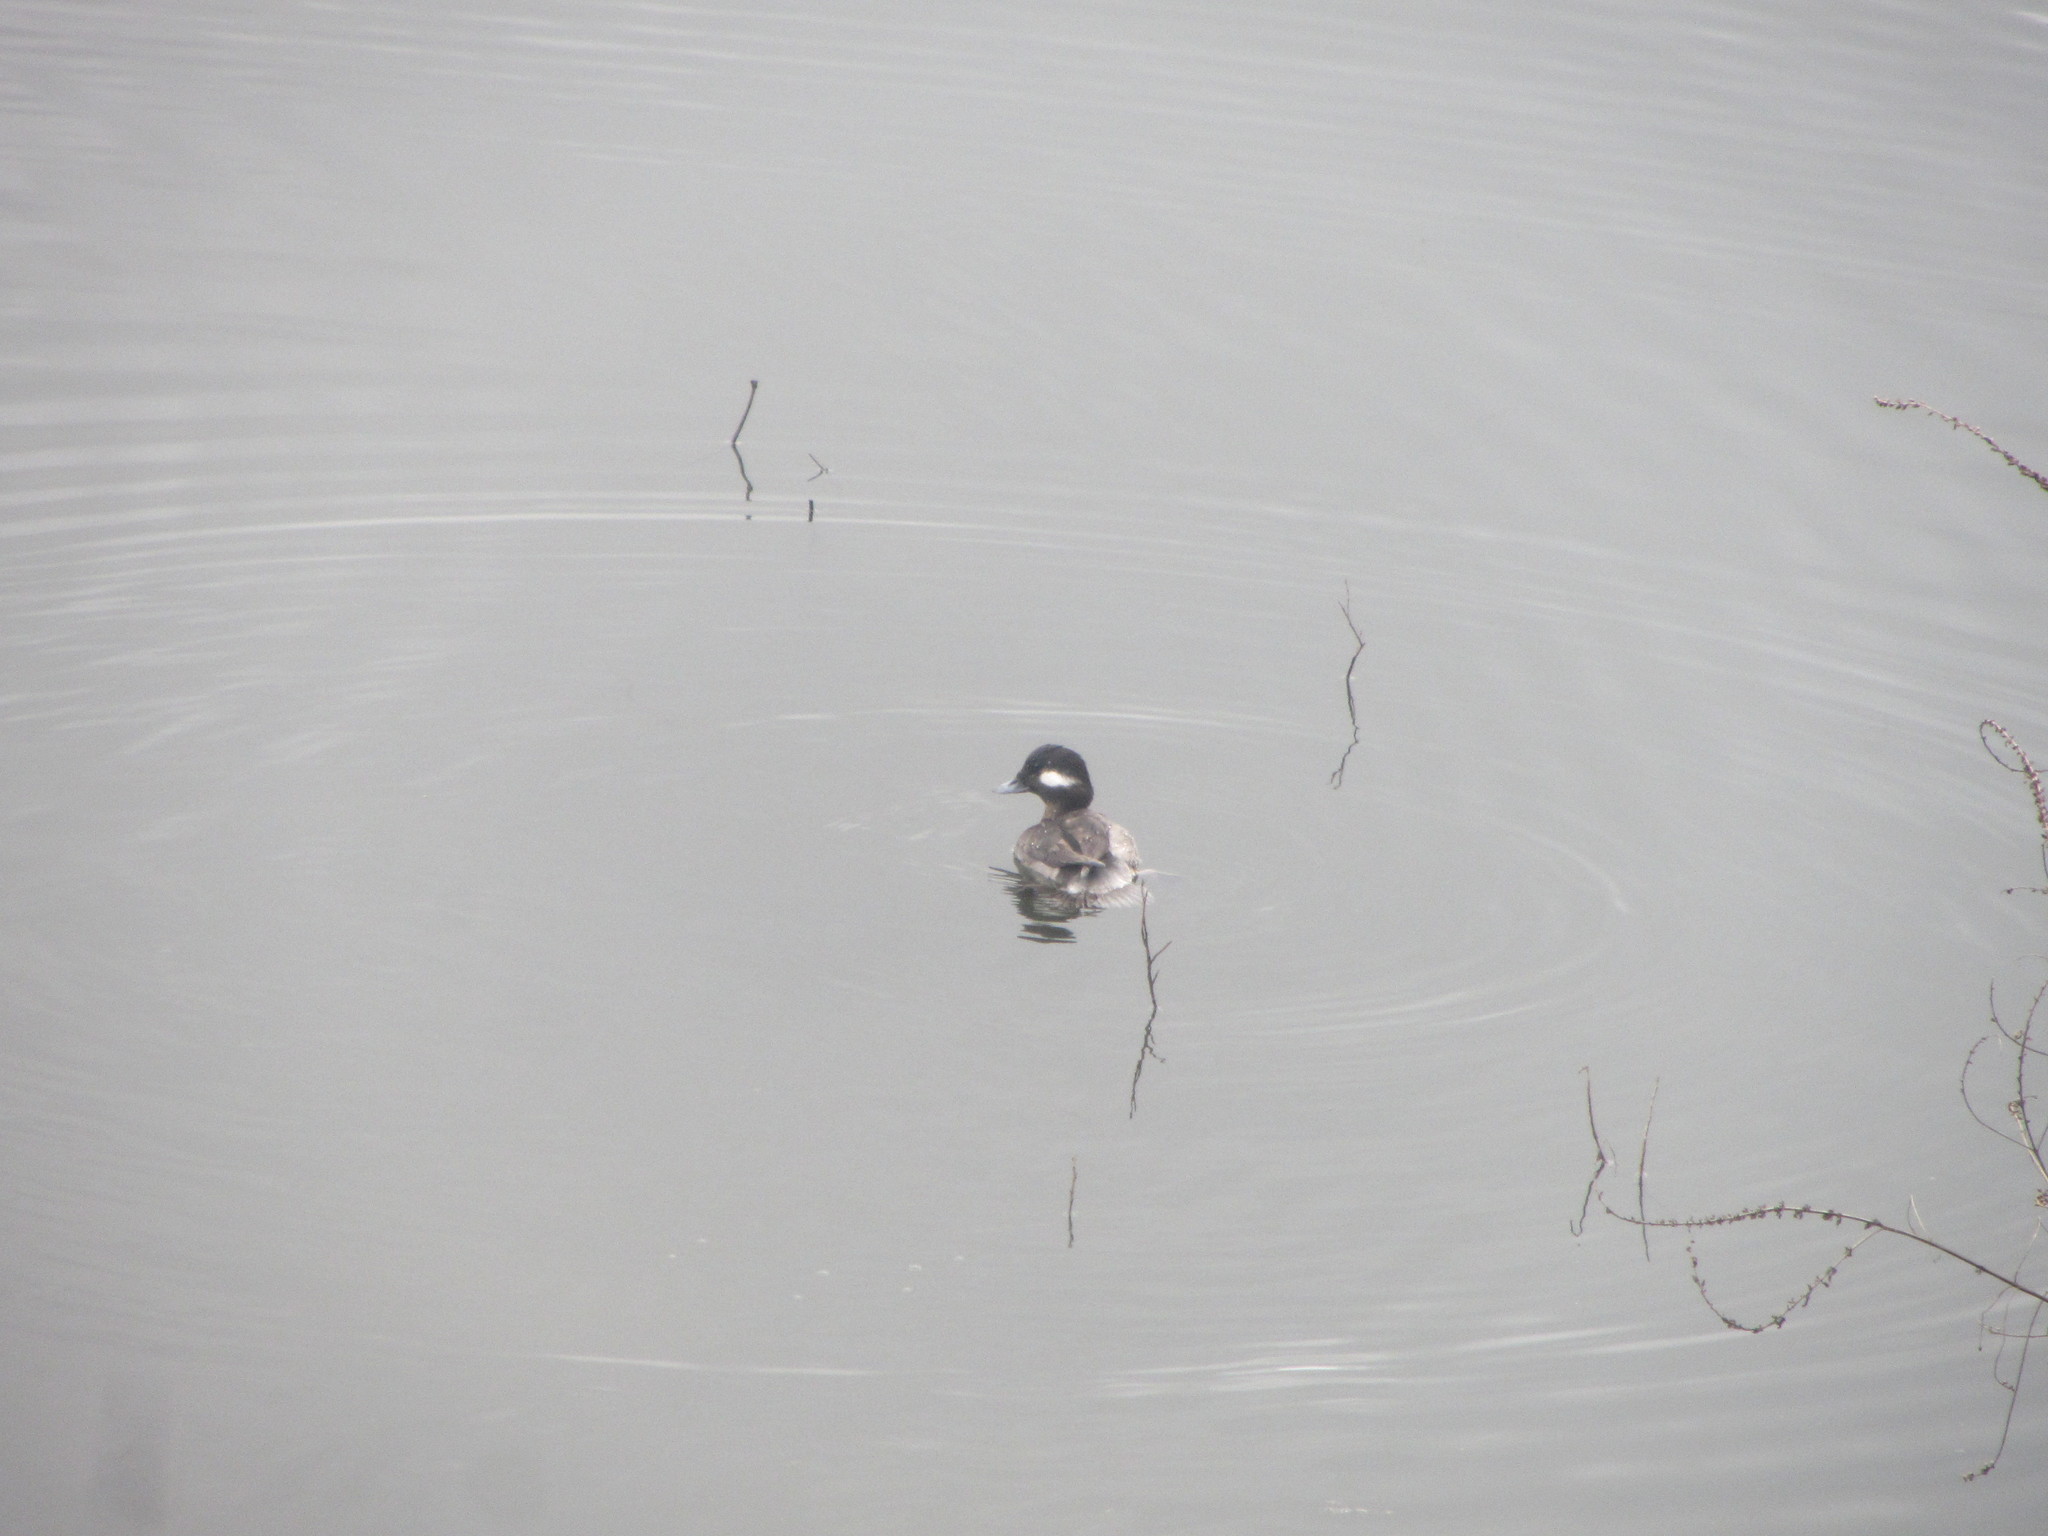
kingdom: Animalia
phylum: Chordata
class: Aves
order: Anseriformes
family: Anatidae
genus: Bucephala
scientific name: Bucephala albeola
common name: Bufflehead
